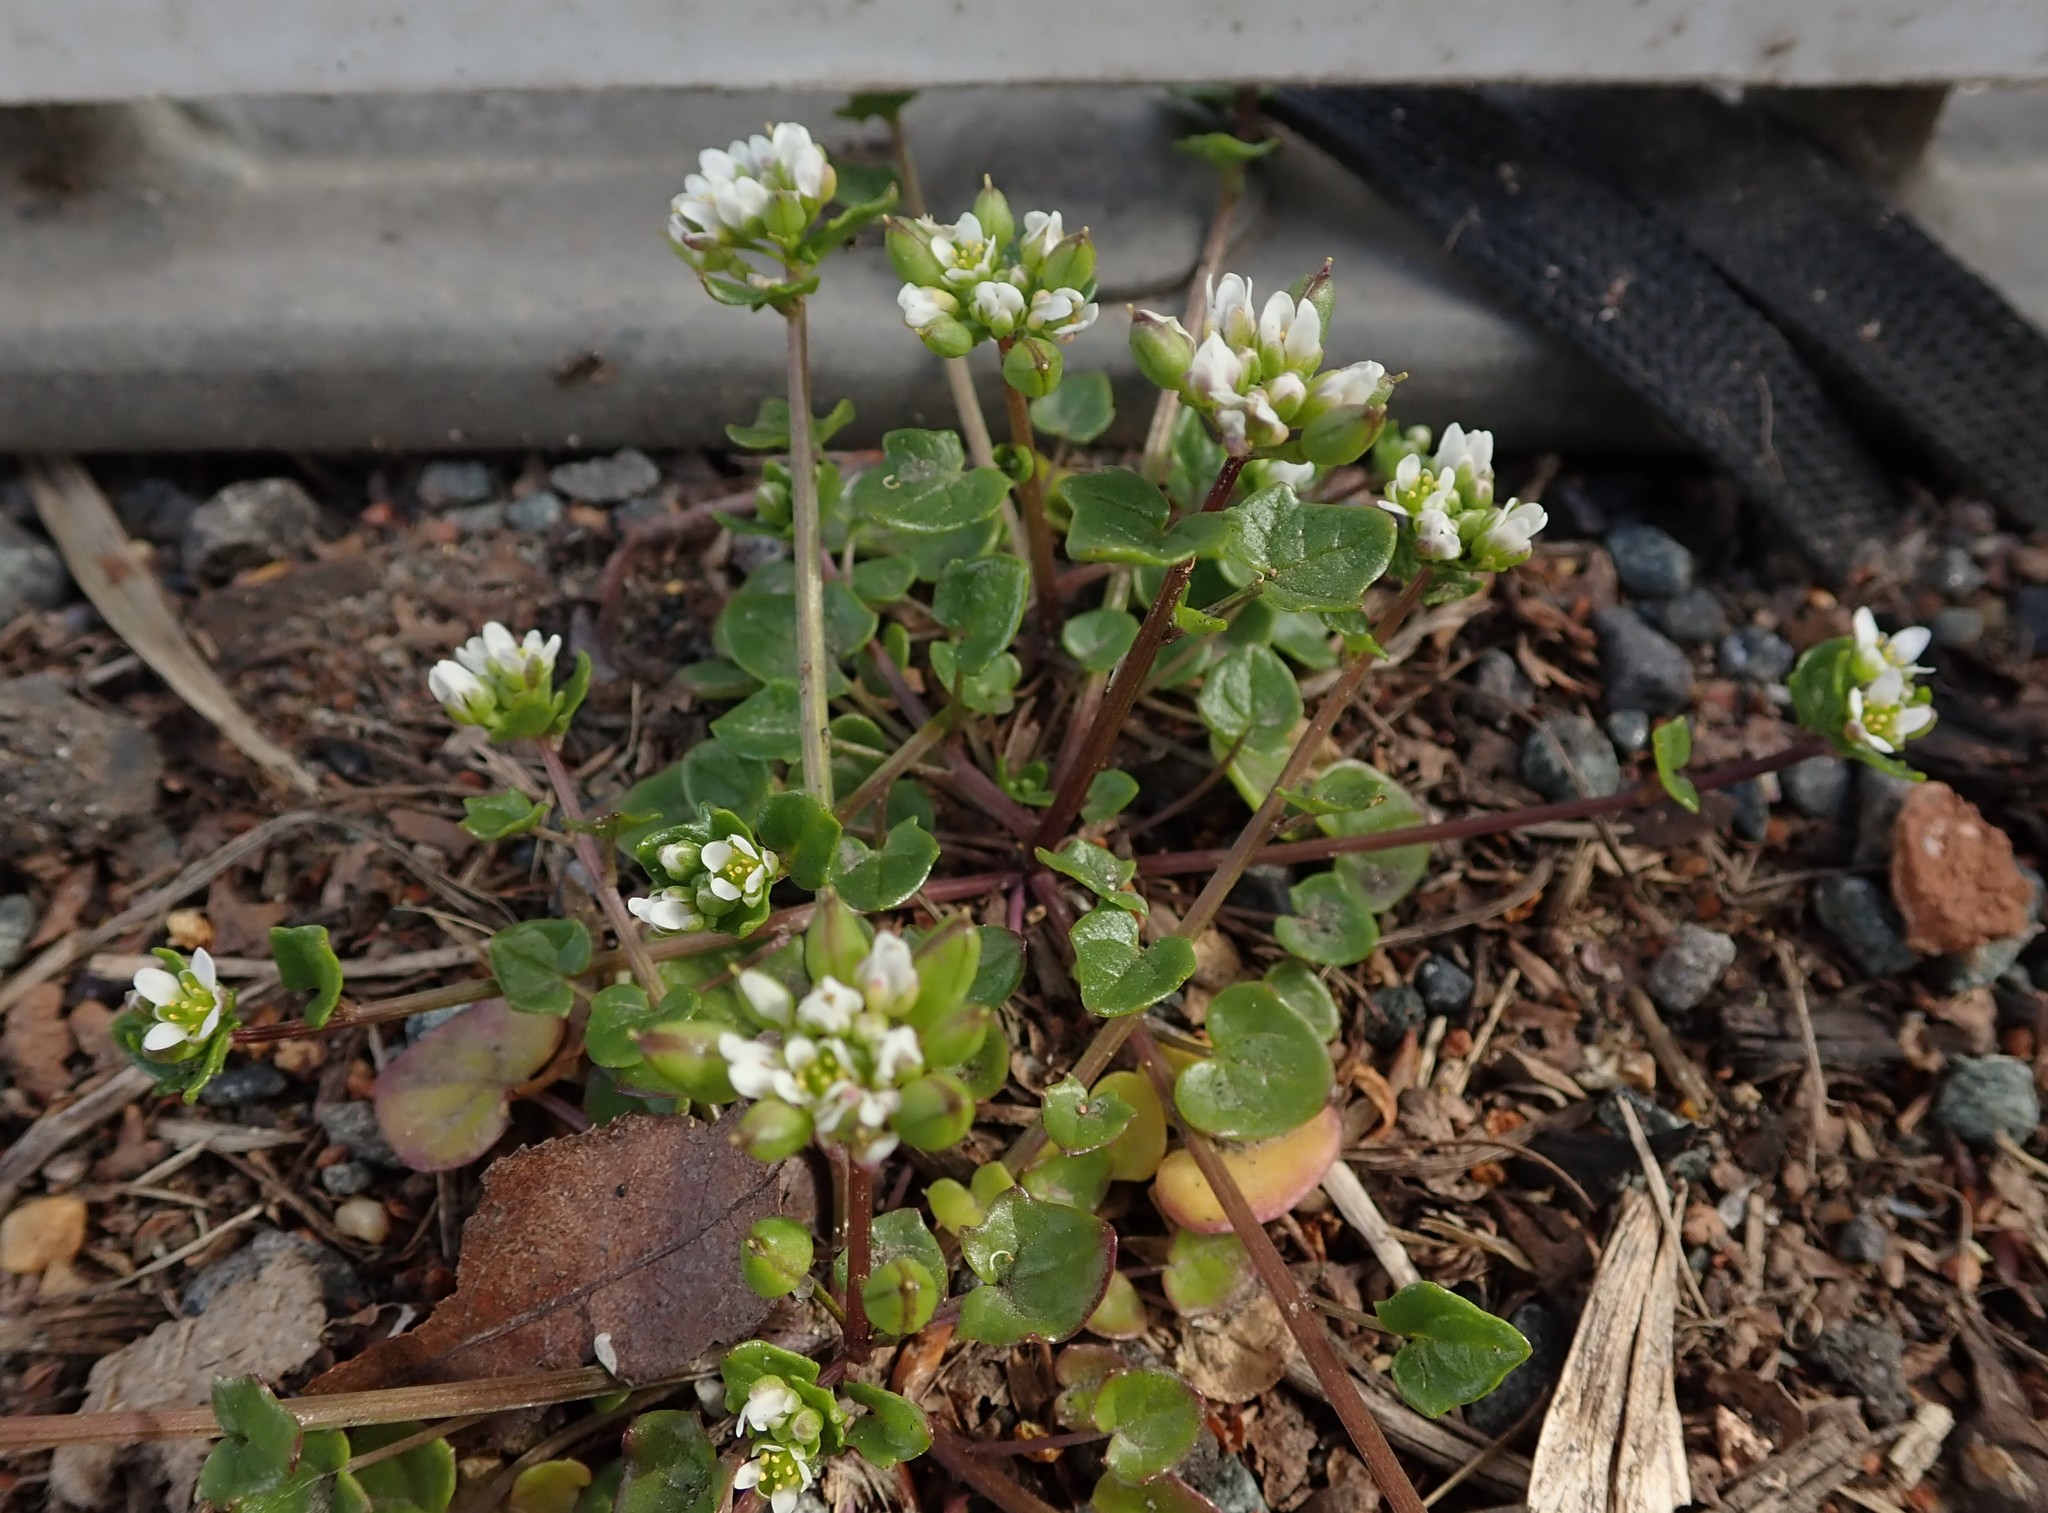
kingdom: Plantae
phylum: Tracheophyta
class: Magnoliopsida
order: Brassicales
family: Brassicaceae
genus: Cochlearia
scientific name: Cochlearia danica
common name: Early scurvygrass
